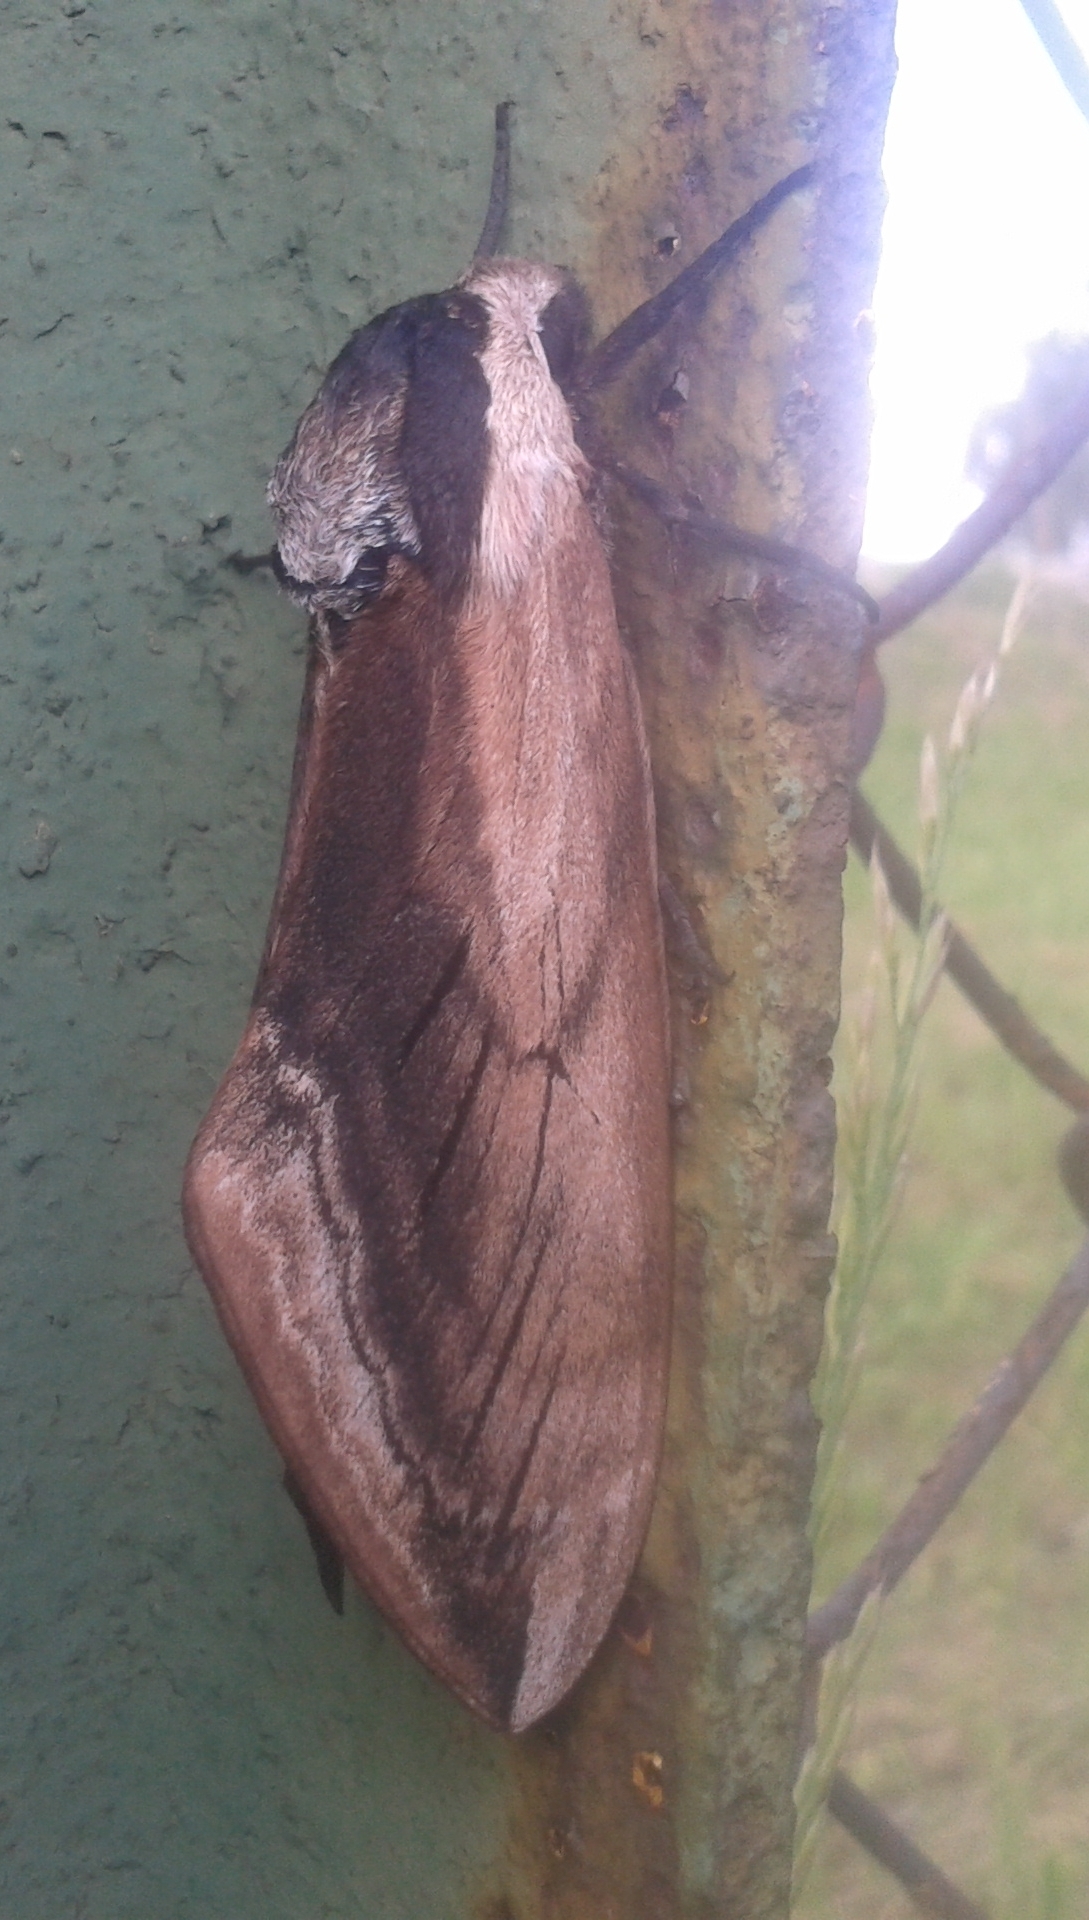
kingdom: Animalia
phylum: Arthropoda
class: Insecta
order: Lepidoptera
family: Sphingidae
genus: Sphinx
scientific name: Sphinx ligustri
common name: Privet hawk-moth
